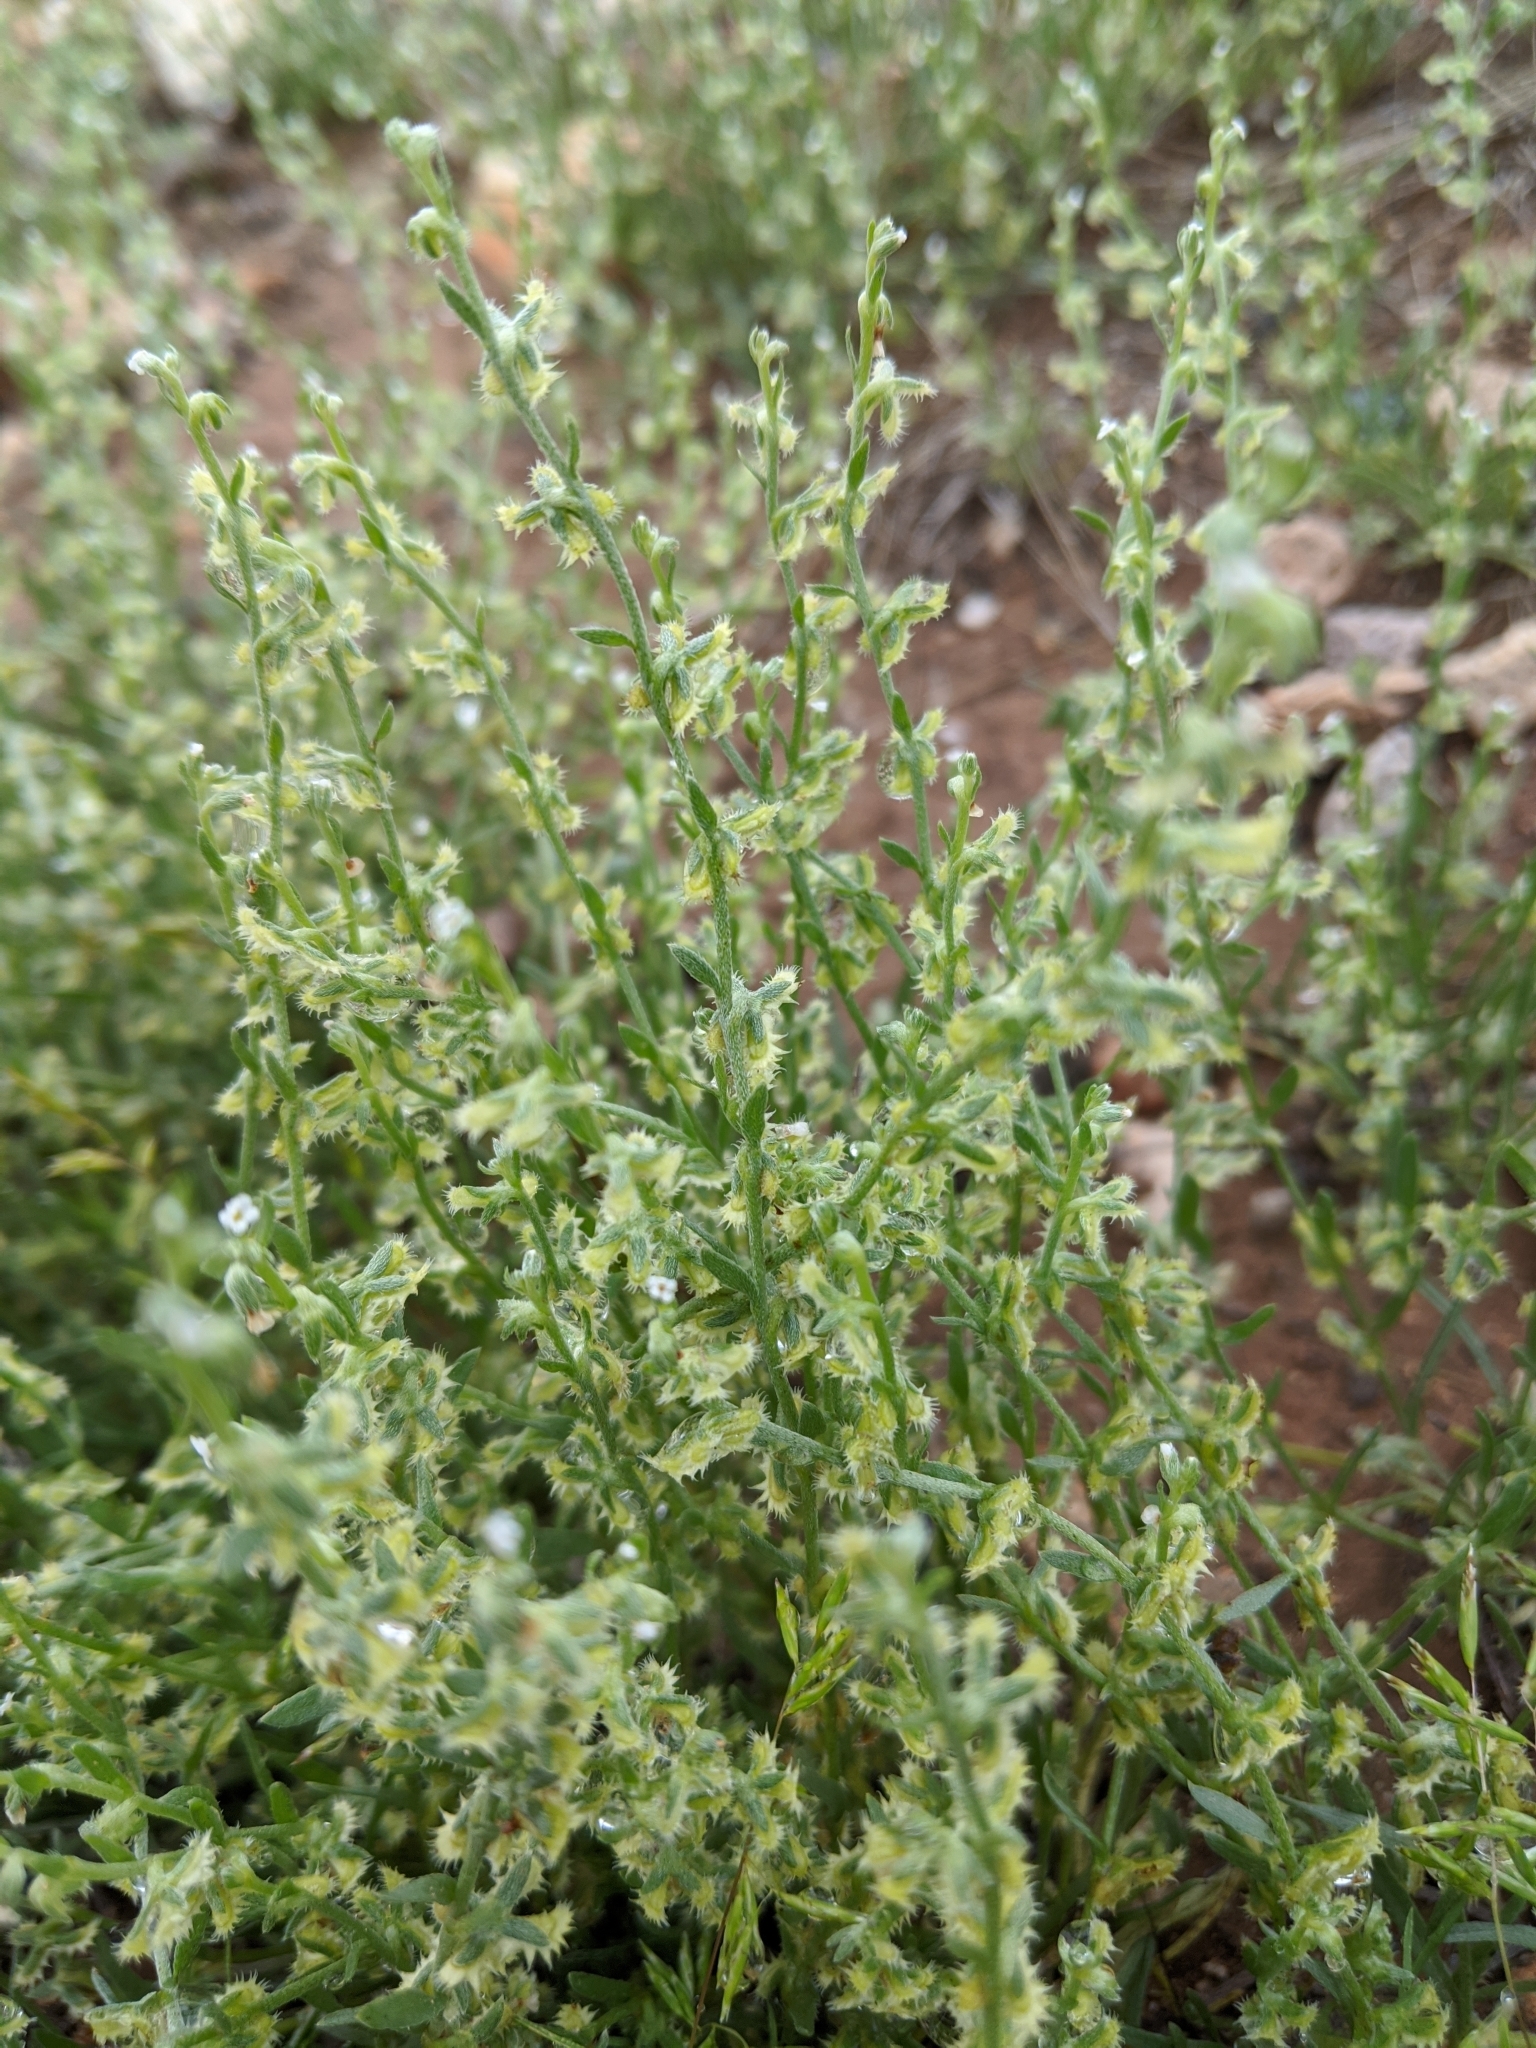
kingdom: Plantae
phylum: Tracheophyta
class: Magnoliopsida
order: Boraginales
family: Boraginaceae
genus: Pectocarya
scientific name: Pectocarya platycarpa
